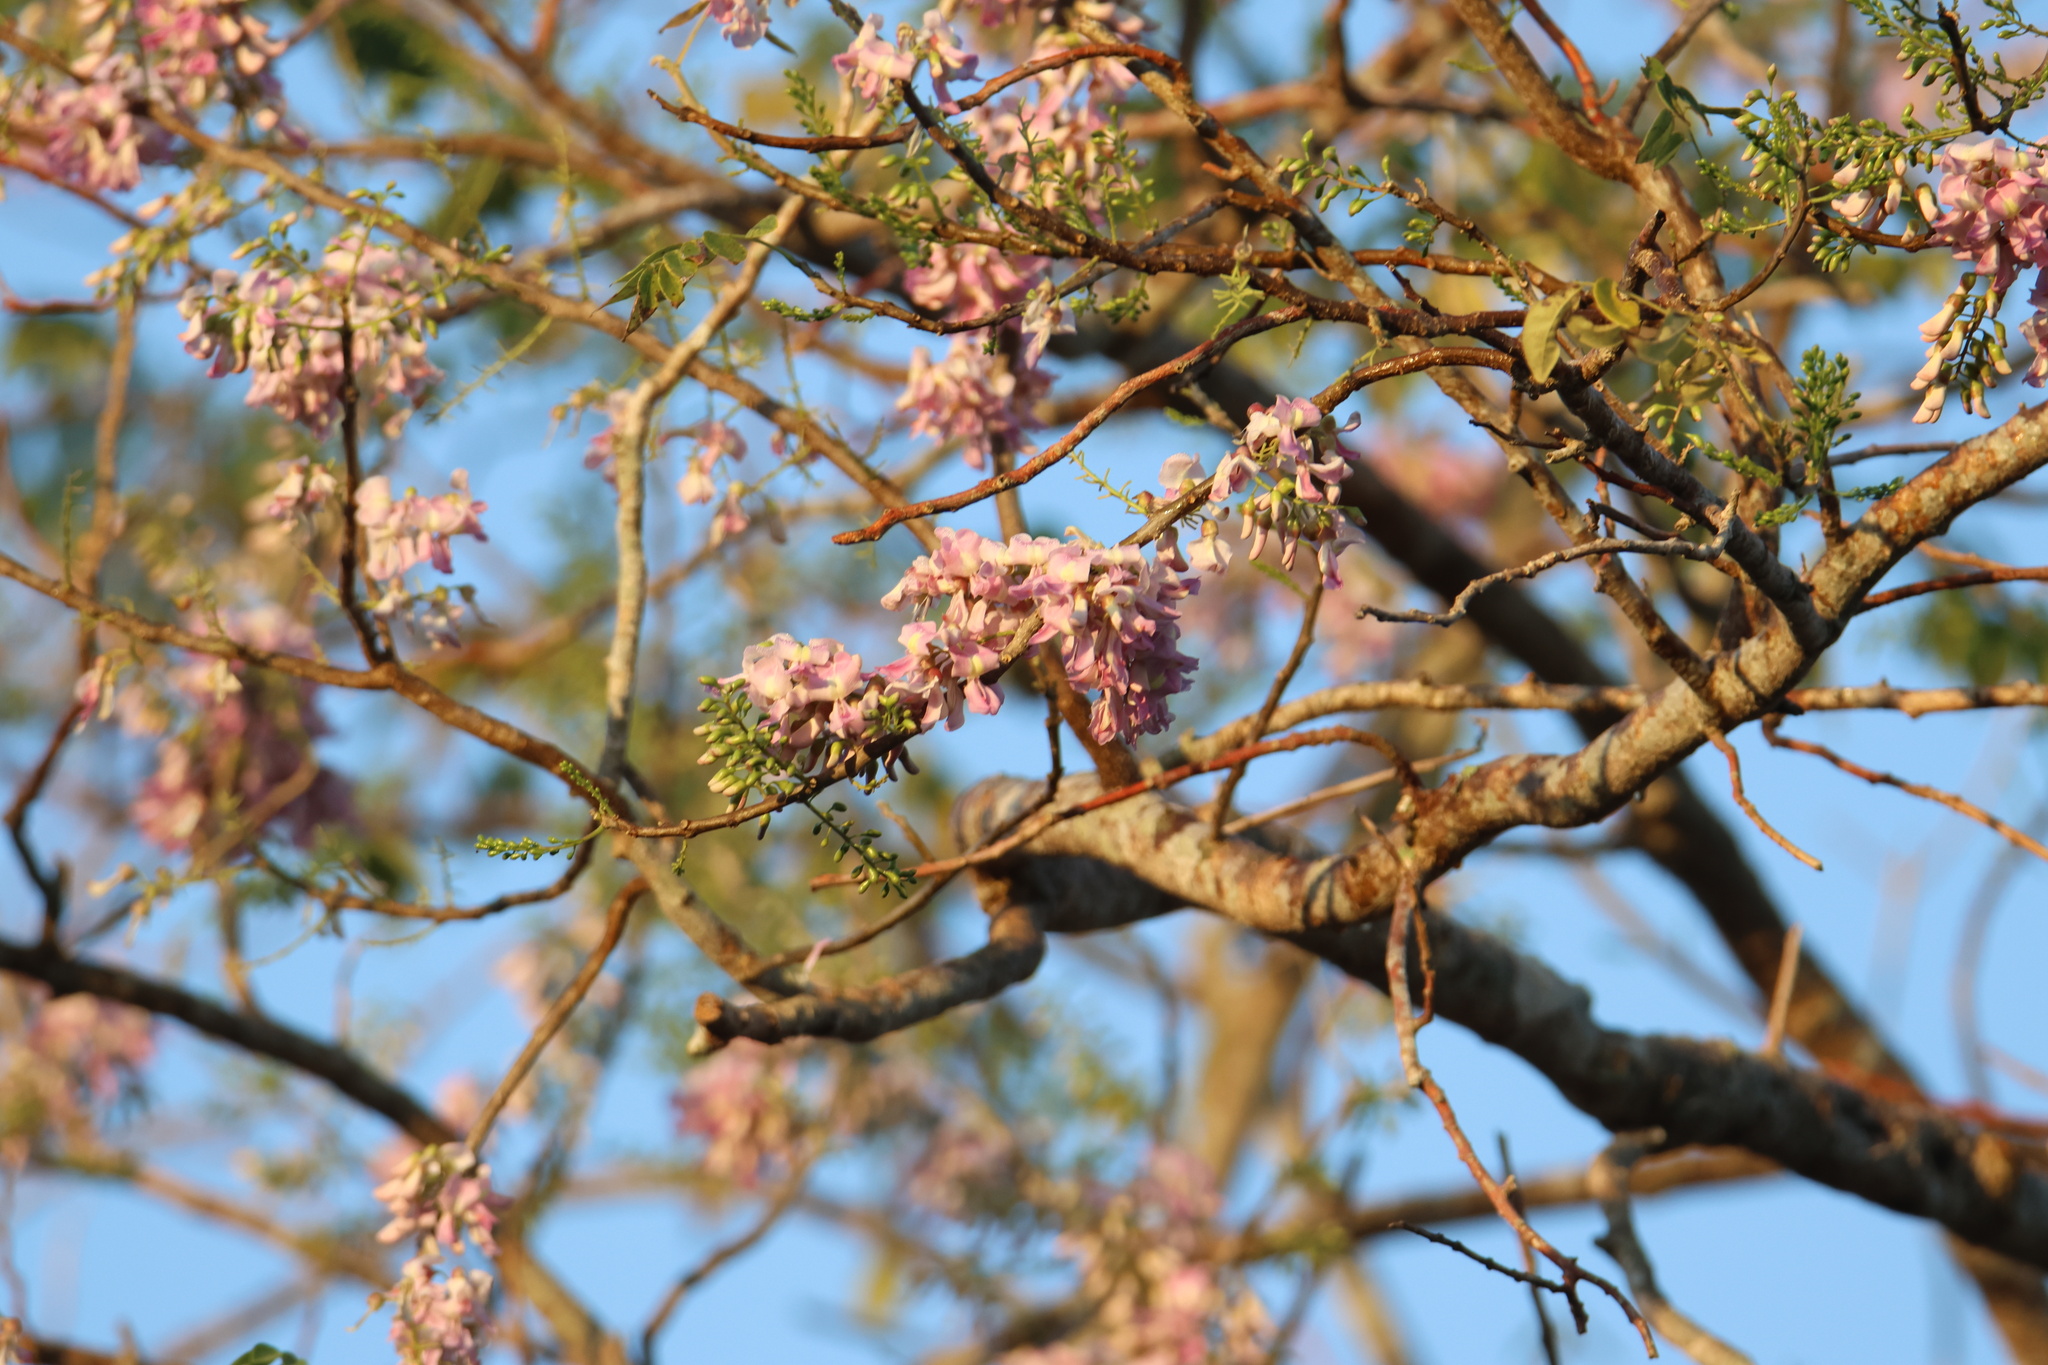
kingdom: Plantae
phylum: Tracheophyta
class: Magnoliopsida
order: Fabales
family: Fabaceae
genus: Gliricidia
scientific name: Gliricidia sepium
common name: Quickstick
